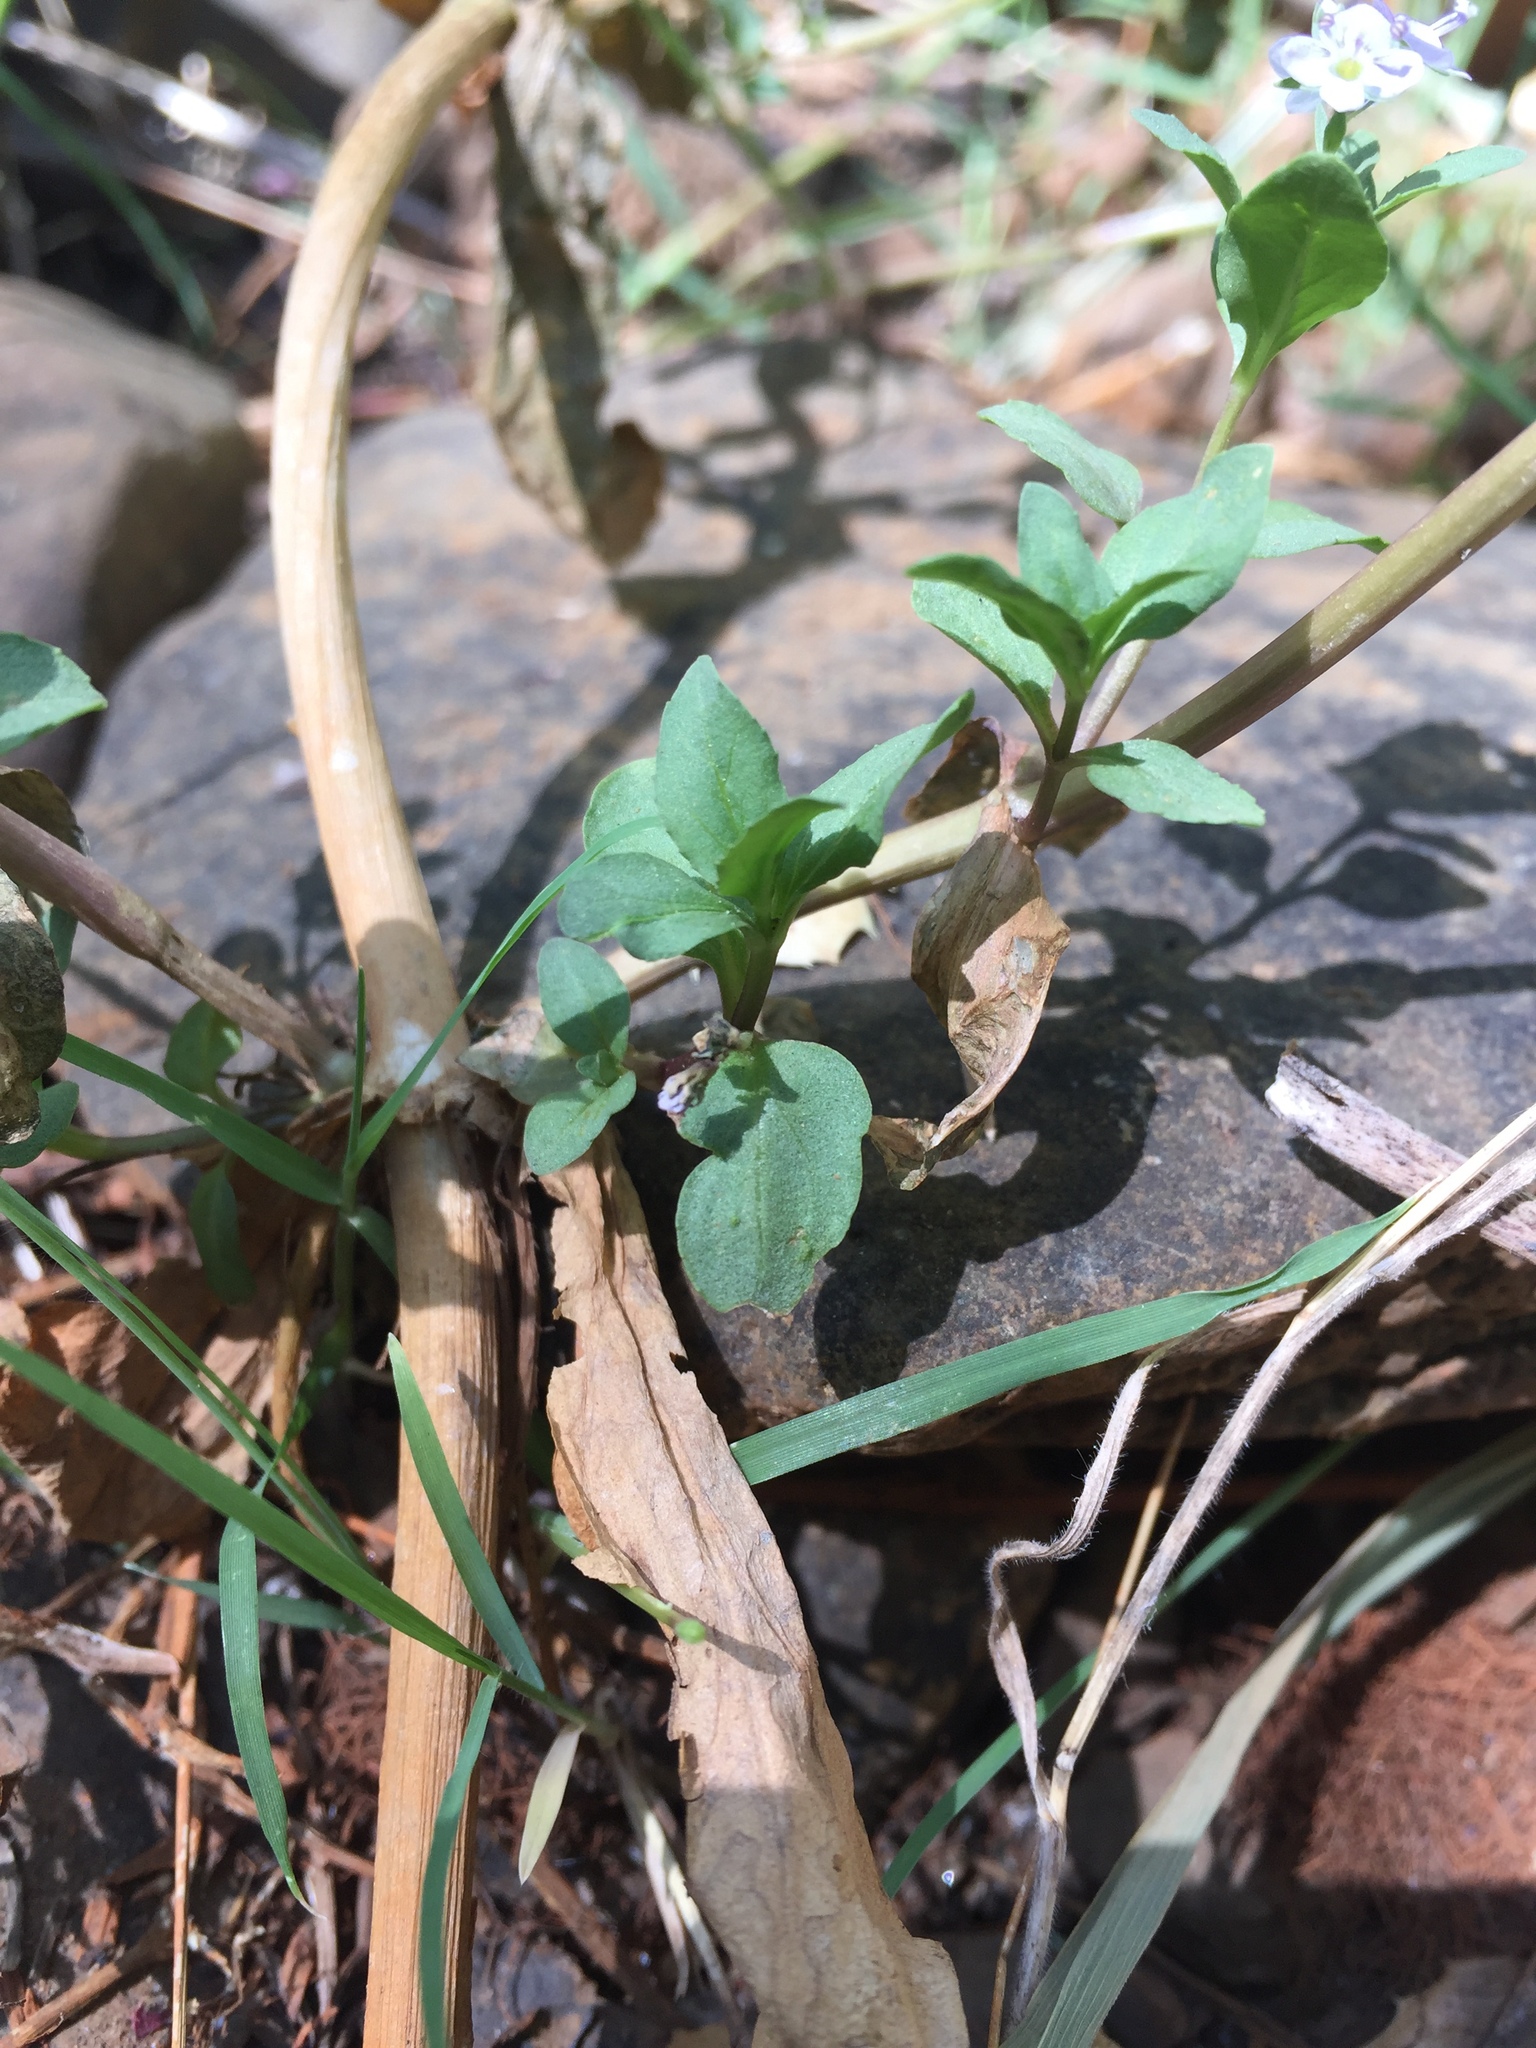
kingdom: Plantae
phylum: Tracheophyta
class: Magnoliopsida
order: Lamiales
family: Plantaginaceae
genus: Veronica
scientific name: Veronica anagallis-aquatica
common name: Water speedwell
